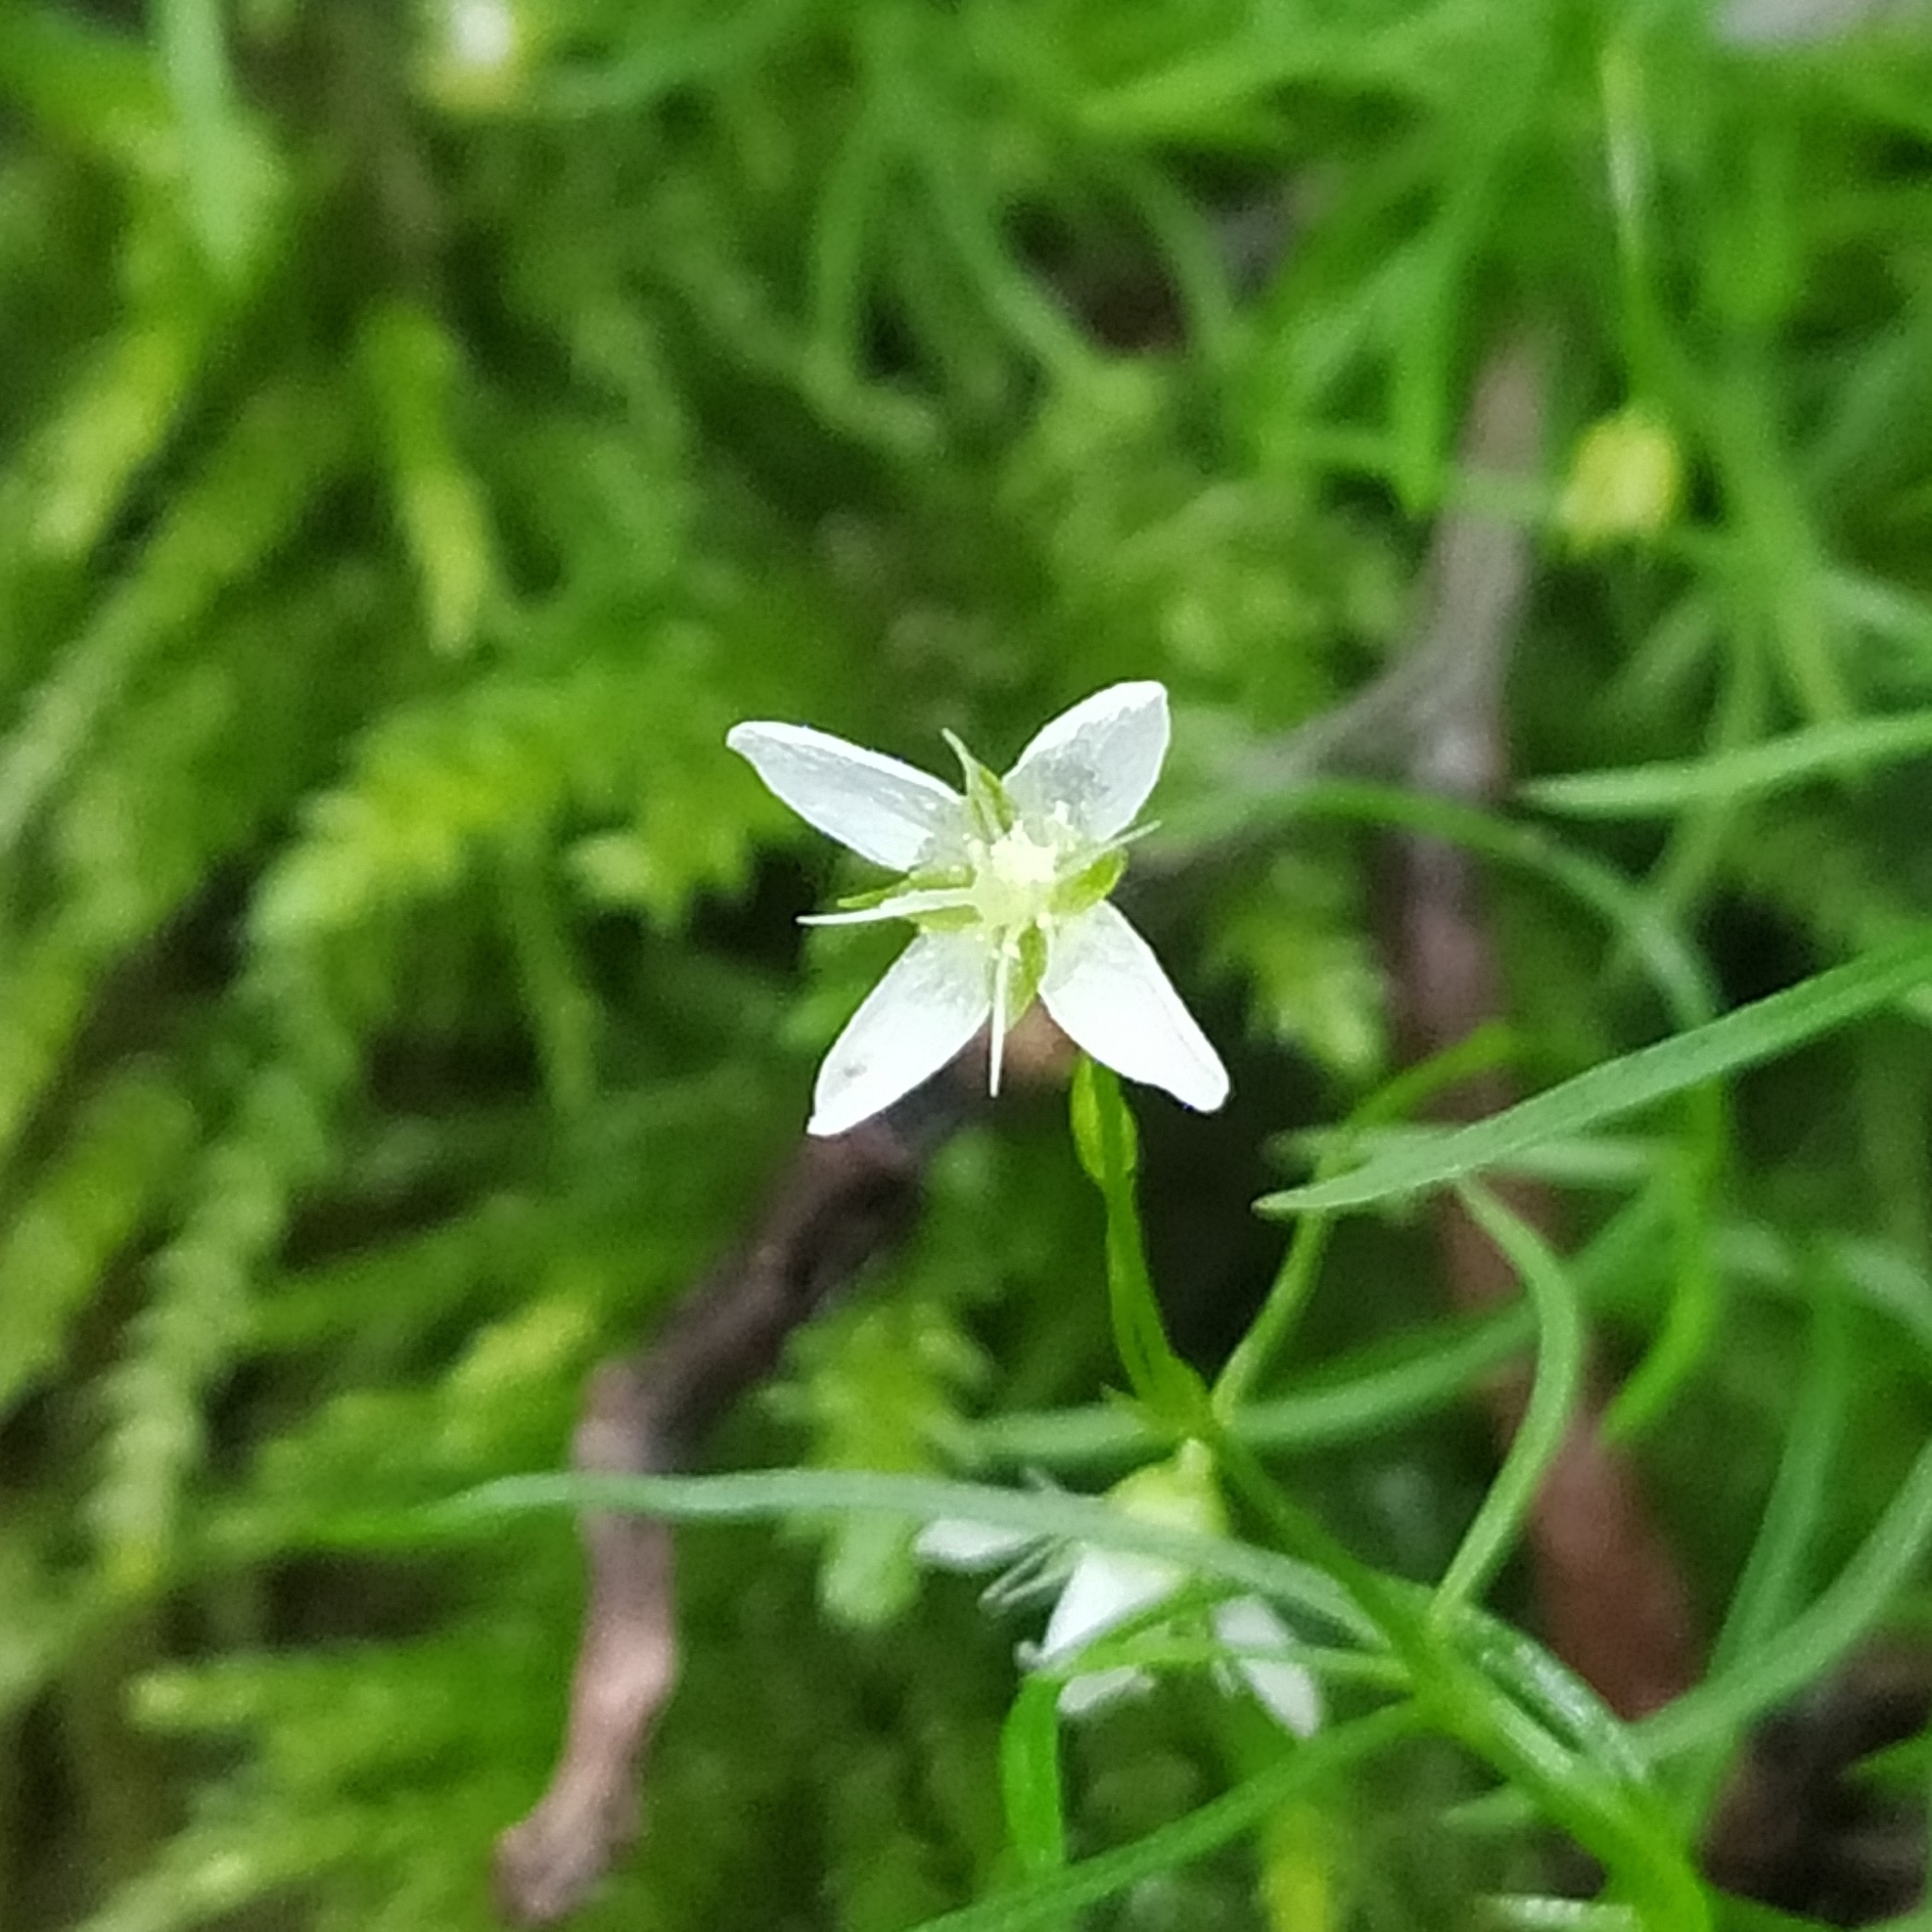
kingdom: Plantae
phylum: Tracheophyta
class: Magnoliopsida
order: Caryophyllales
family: Caryophyllaceae
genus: Moehringia
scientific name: Moehringia muscosa
